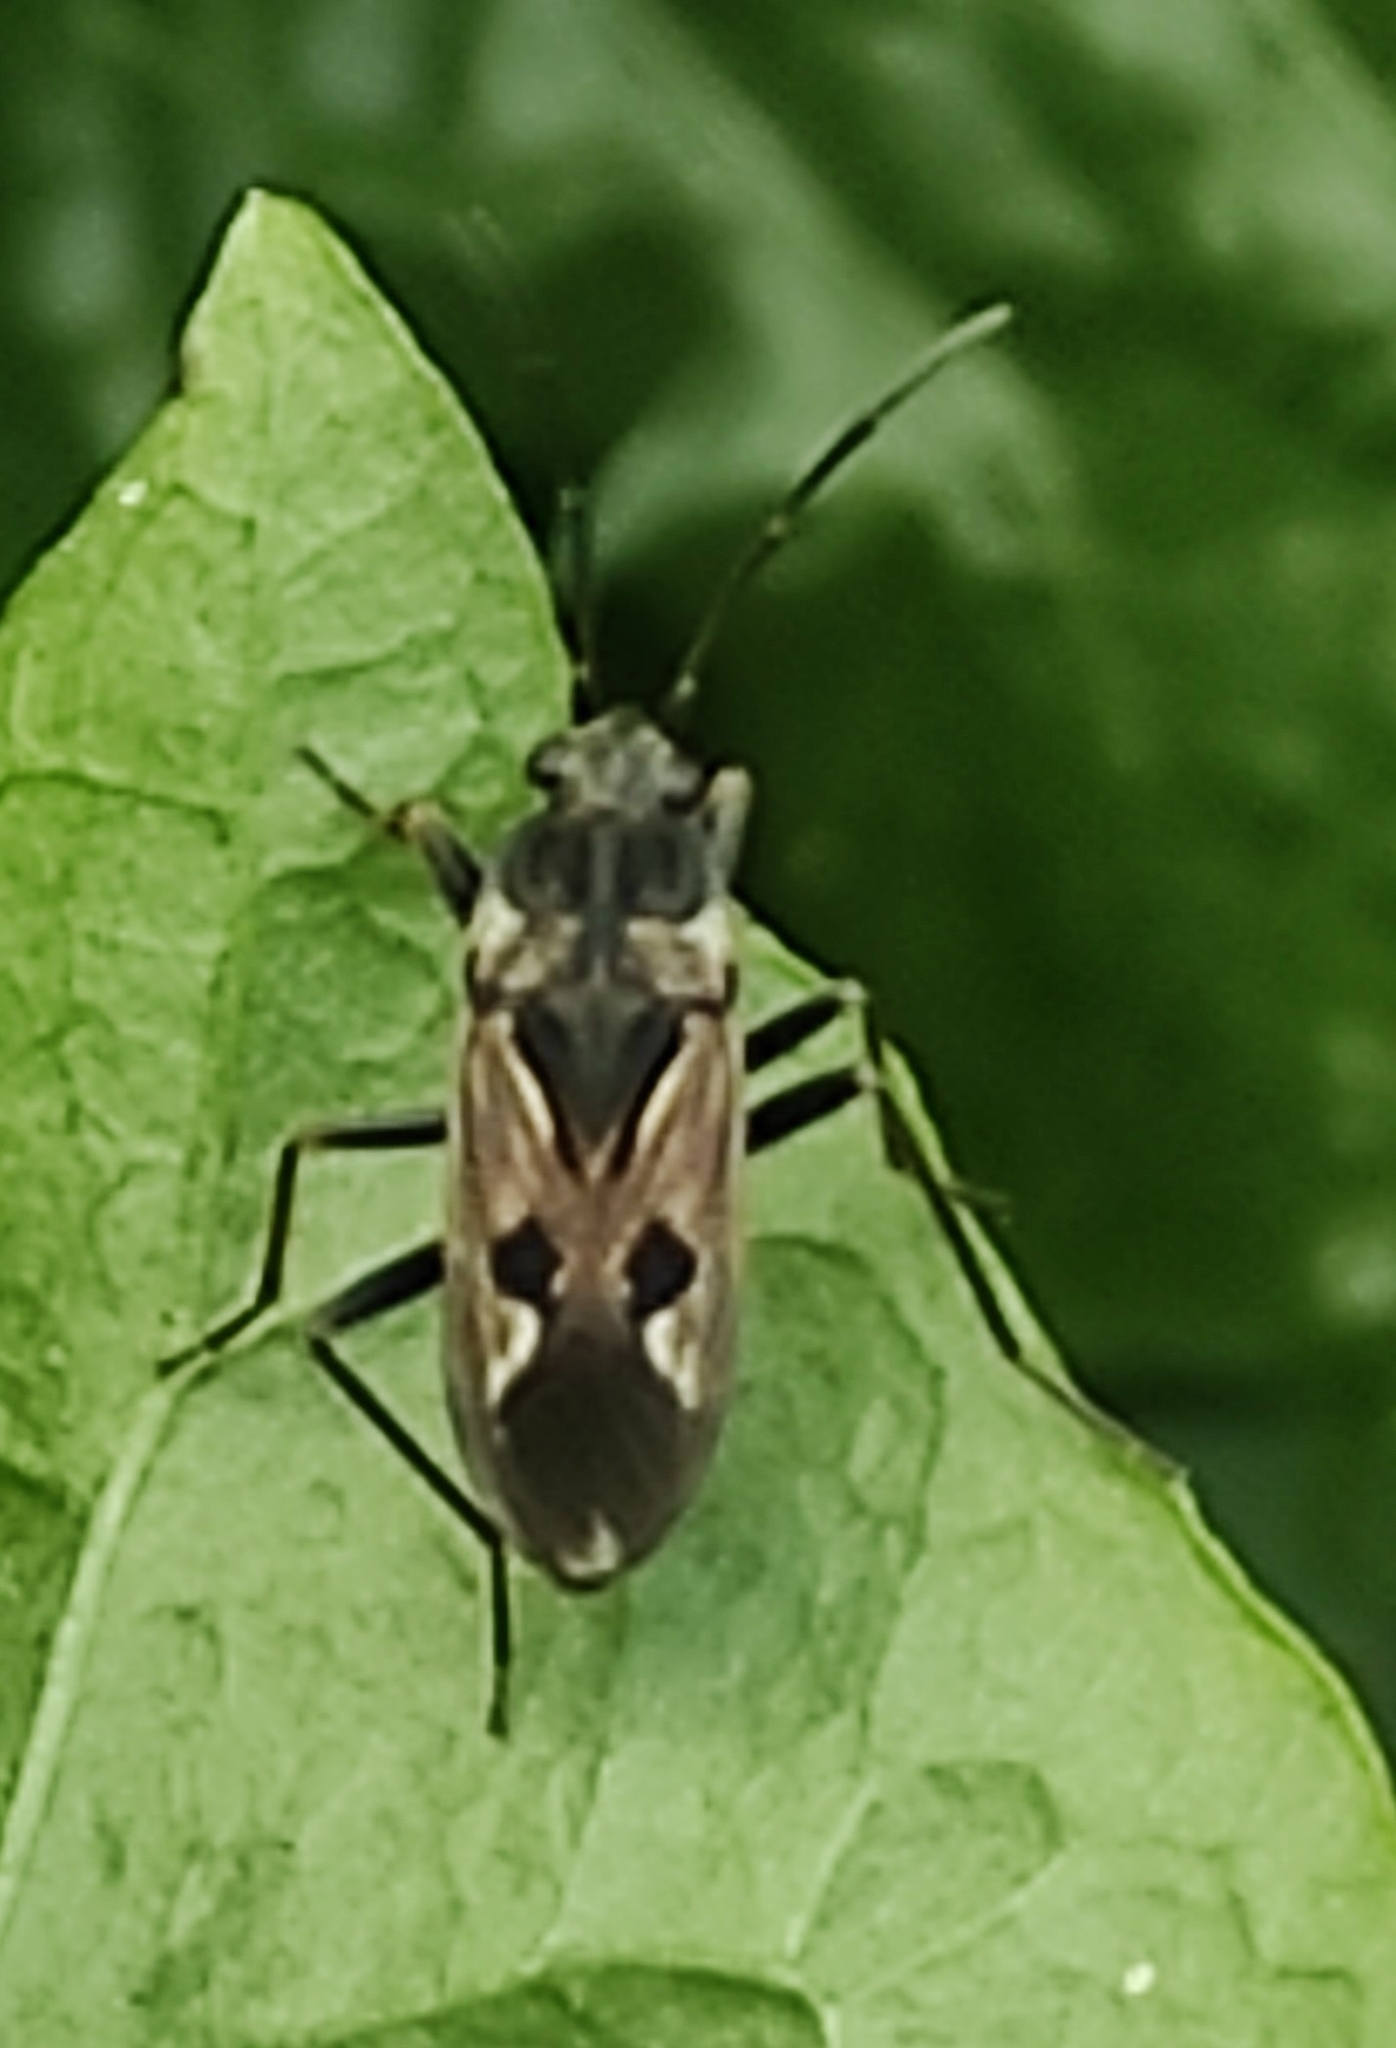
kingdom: Animalia
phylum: Arthropoda
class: Insecta
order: Hemiptera
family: Rhyparochromidae
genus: Rhyparochromus
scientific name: Rhyparochromus vulgaris
